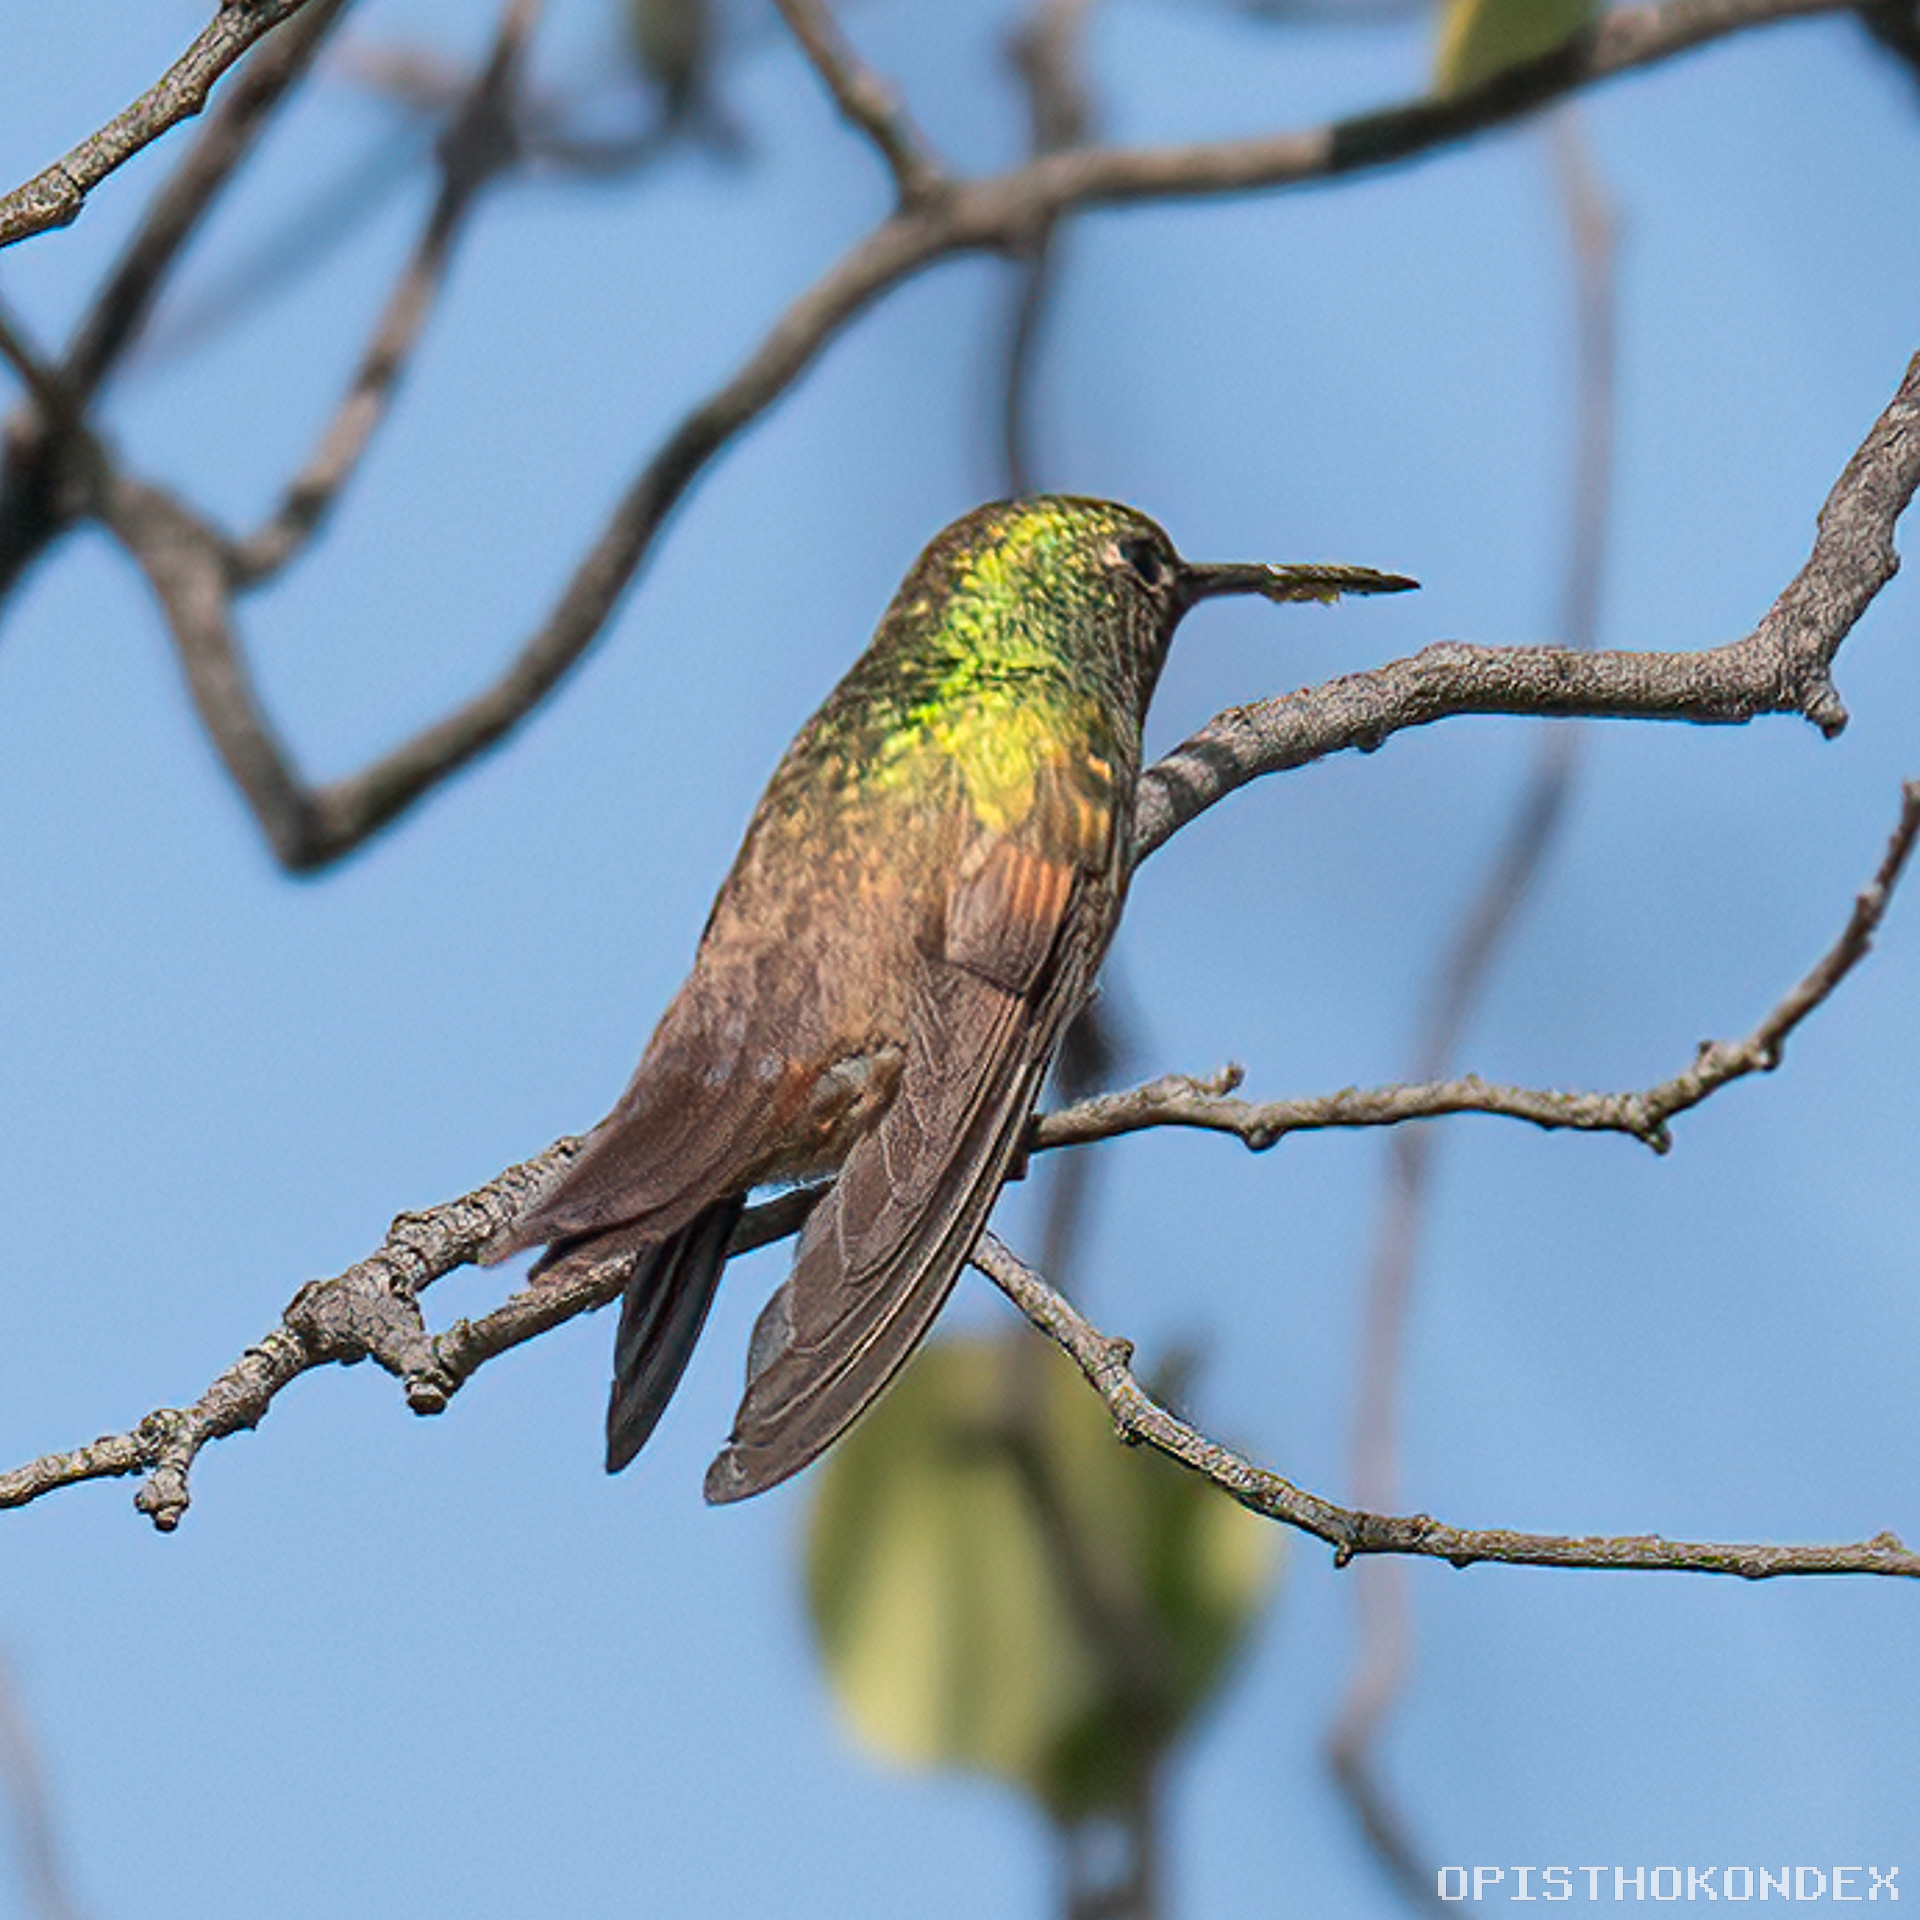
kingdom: Animalia
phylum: Chordata
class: Aves
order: Apodiformes
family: Trochilidae
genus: Saucerottia
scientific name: Saucerottia beryllina
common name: Berylline hummingbird
